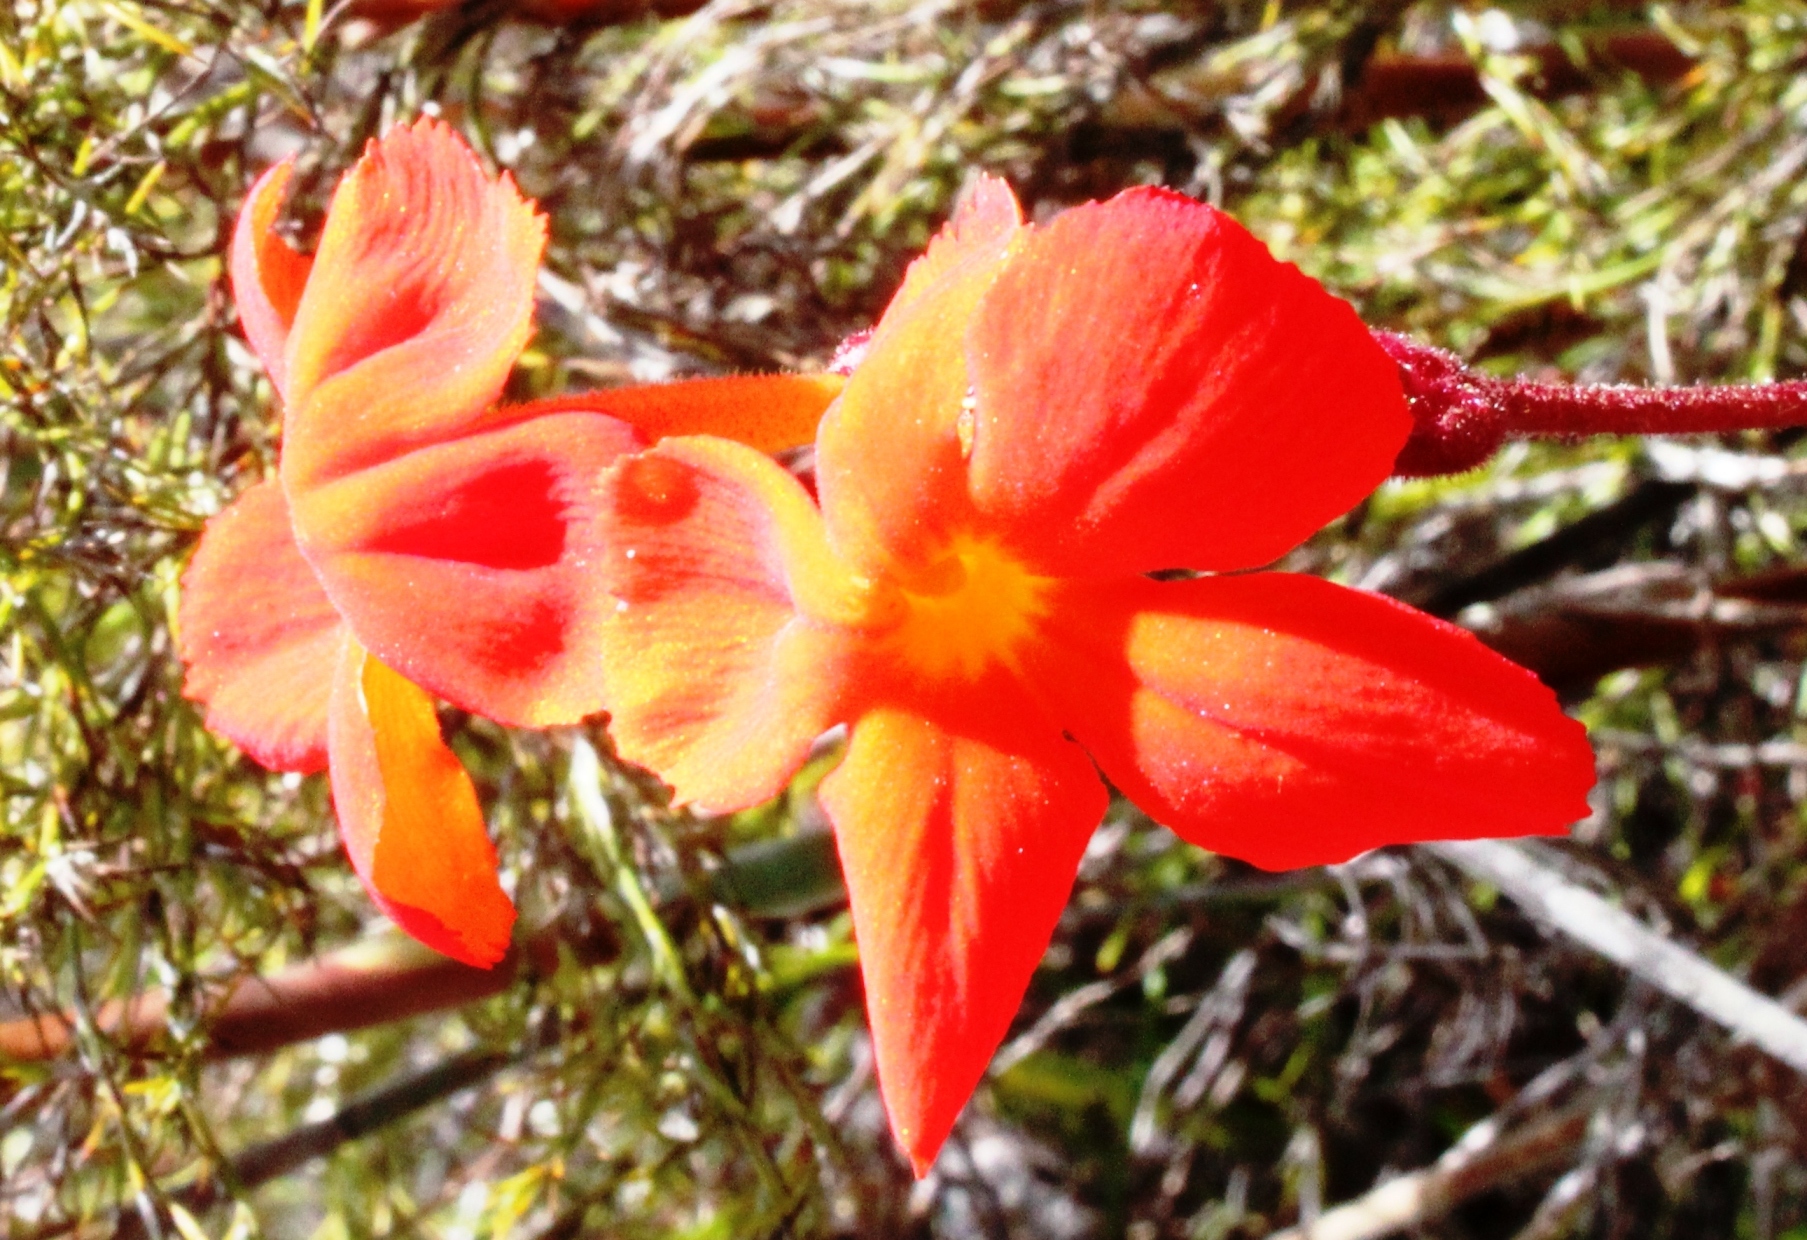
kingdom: Plantae
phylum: Tracheophyta
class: Magnoliopsida
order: Lamiales
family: Orobanchaceae
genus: Harveya
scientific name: Harveya stenosiphon
